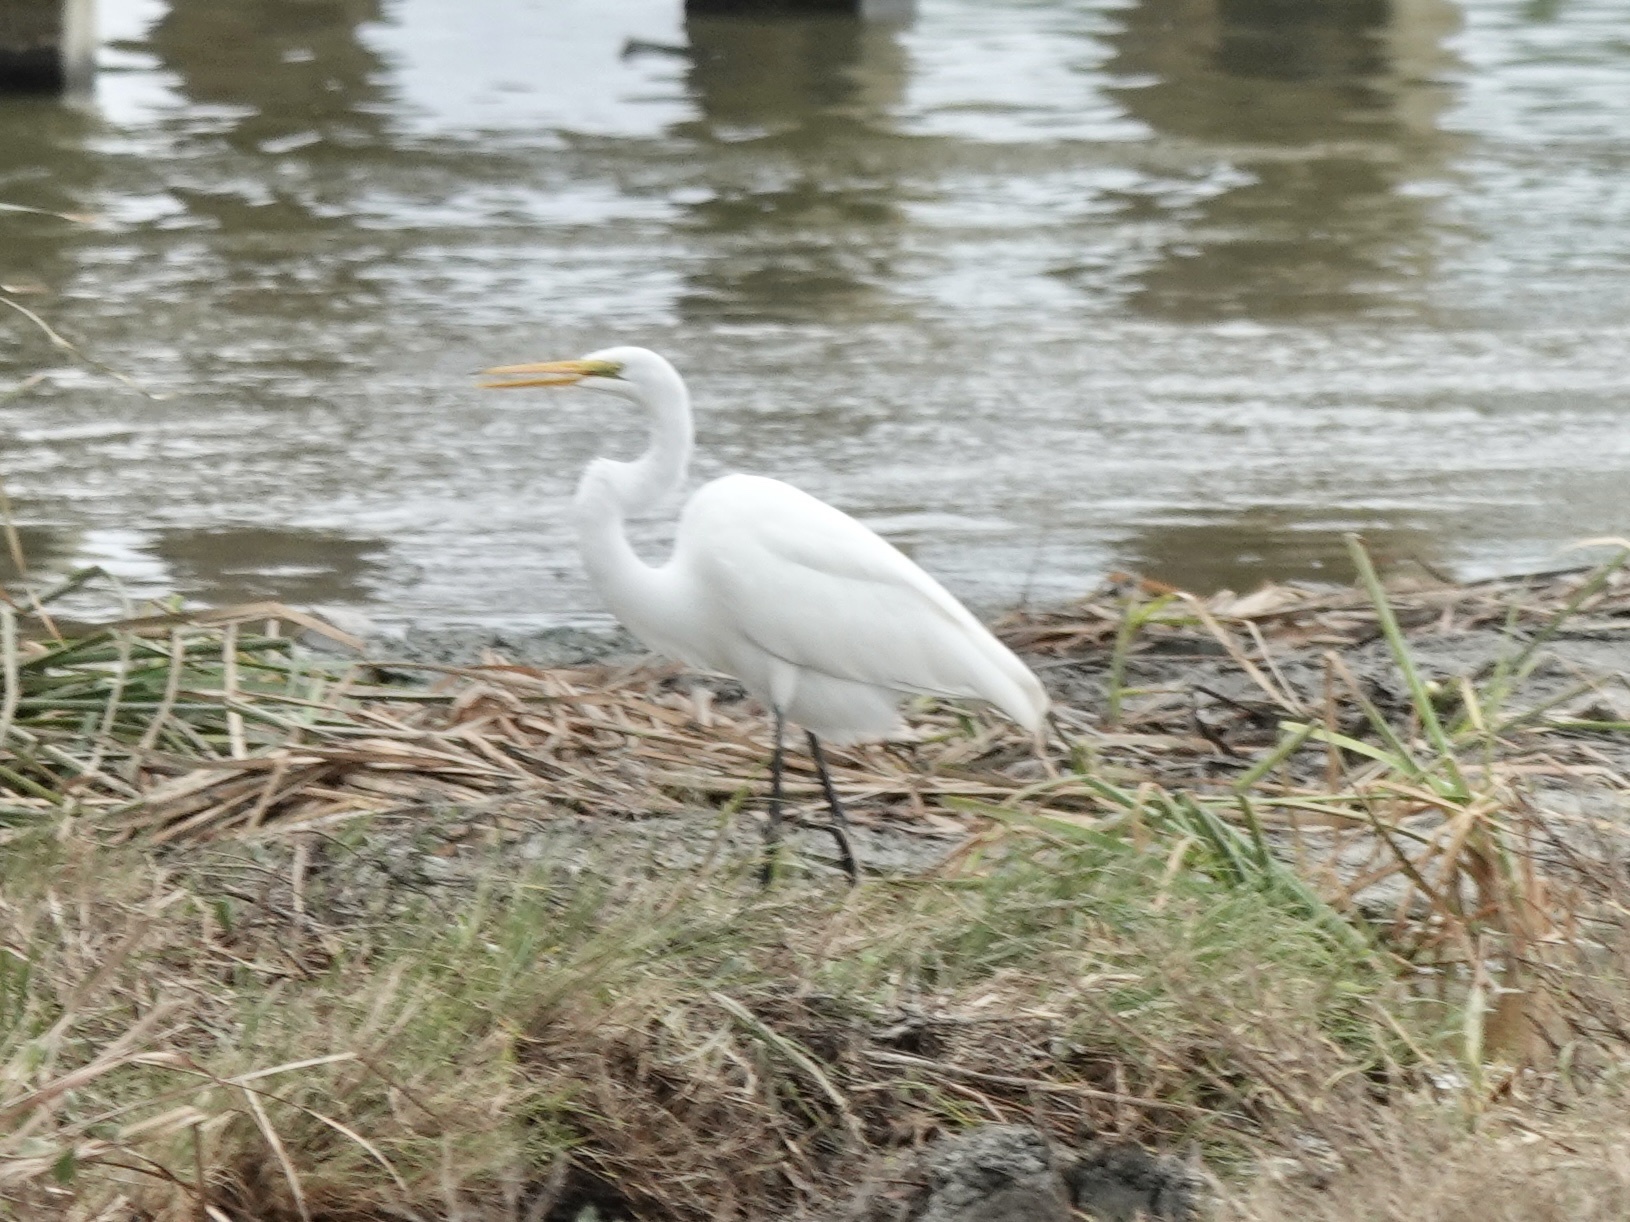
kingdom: Animalia
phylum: Chordata
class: Aves
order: Pelecaniformes
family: Ardeidae
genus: Ardea
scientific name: Ardea alba
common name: Great egret
